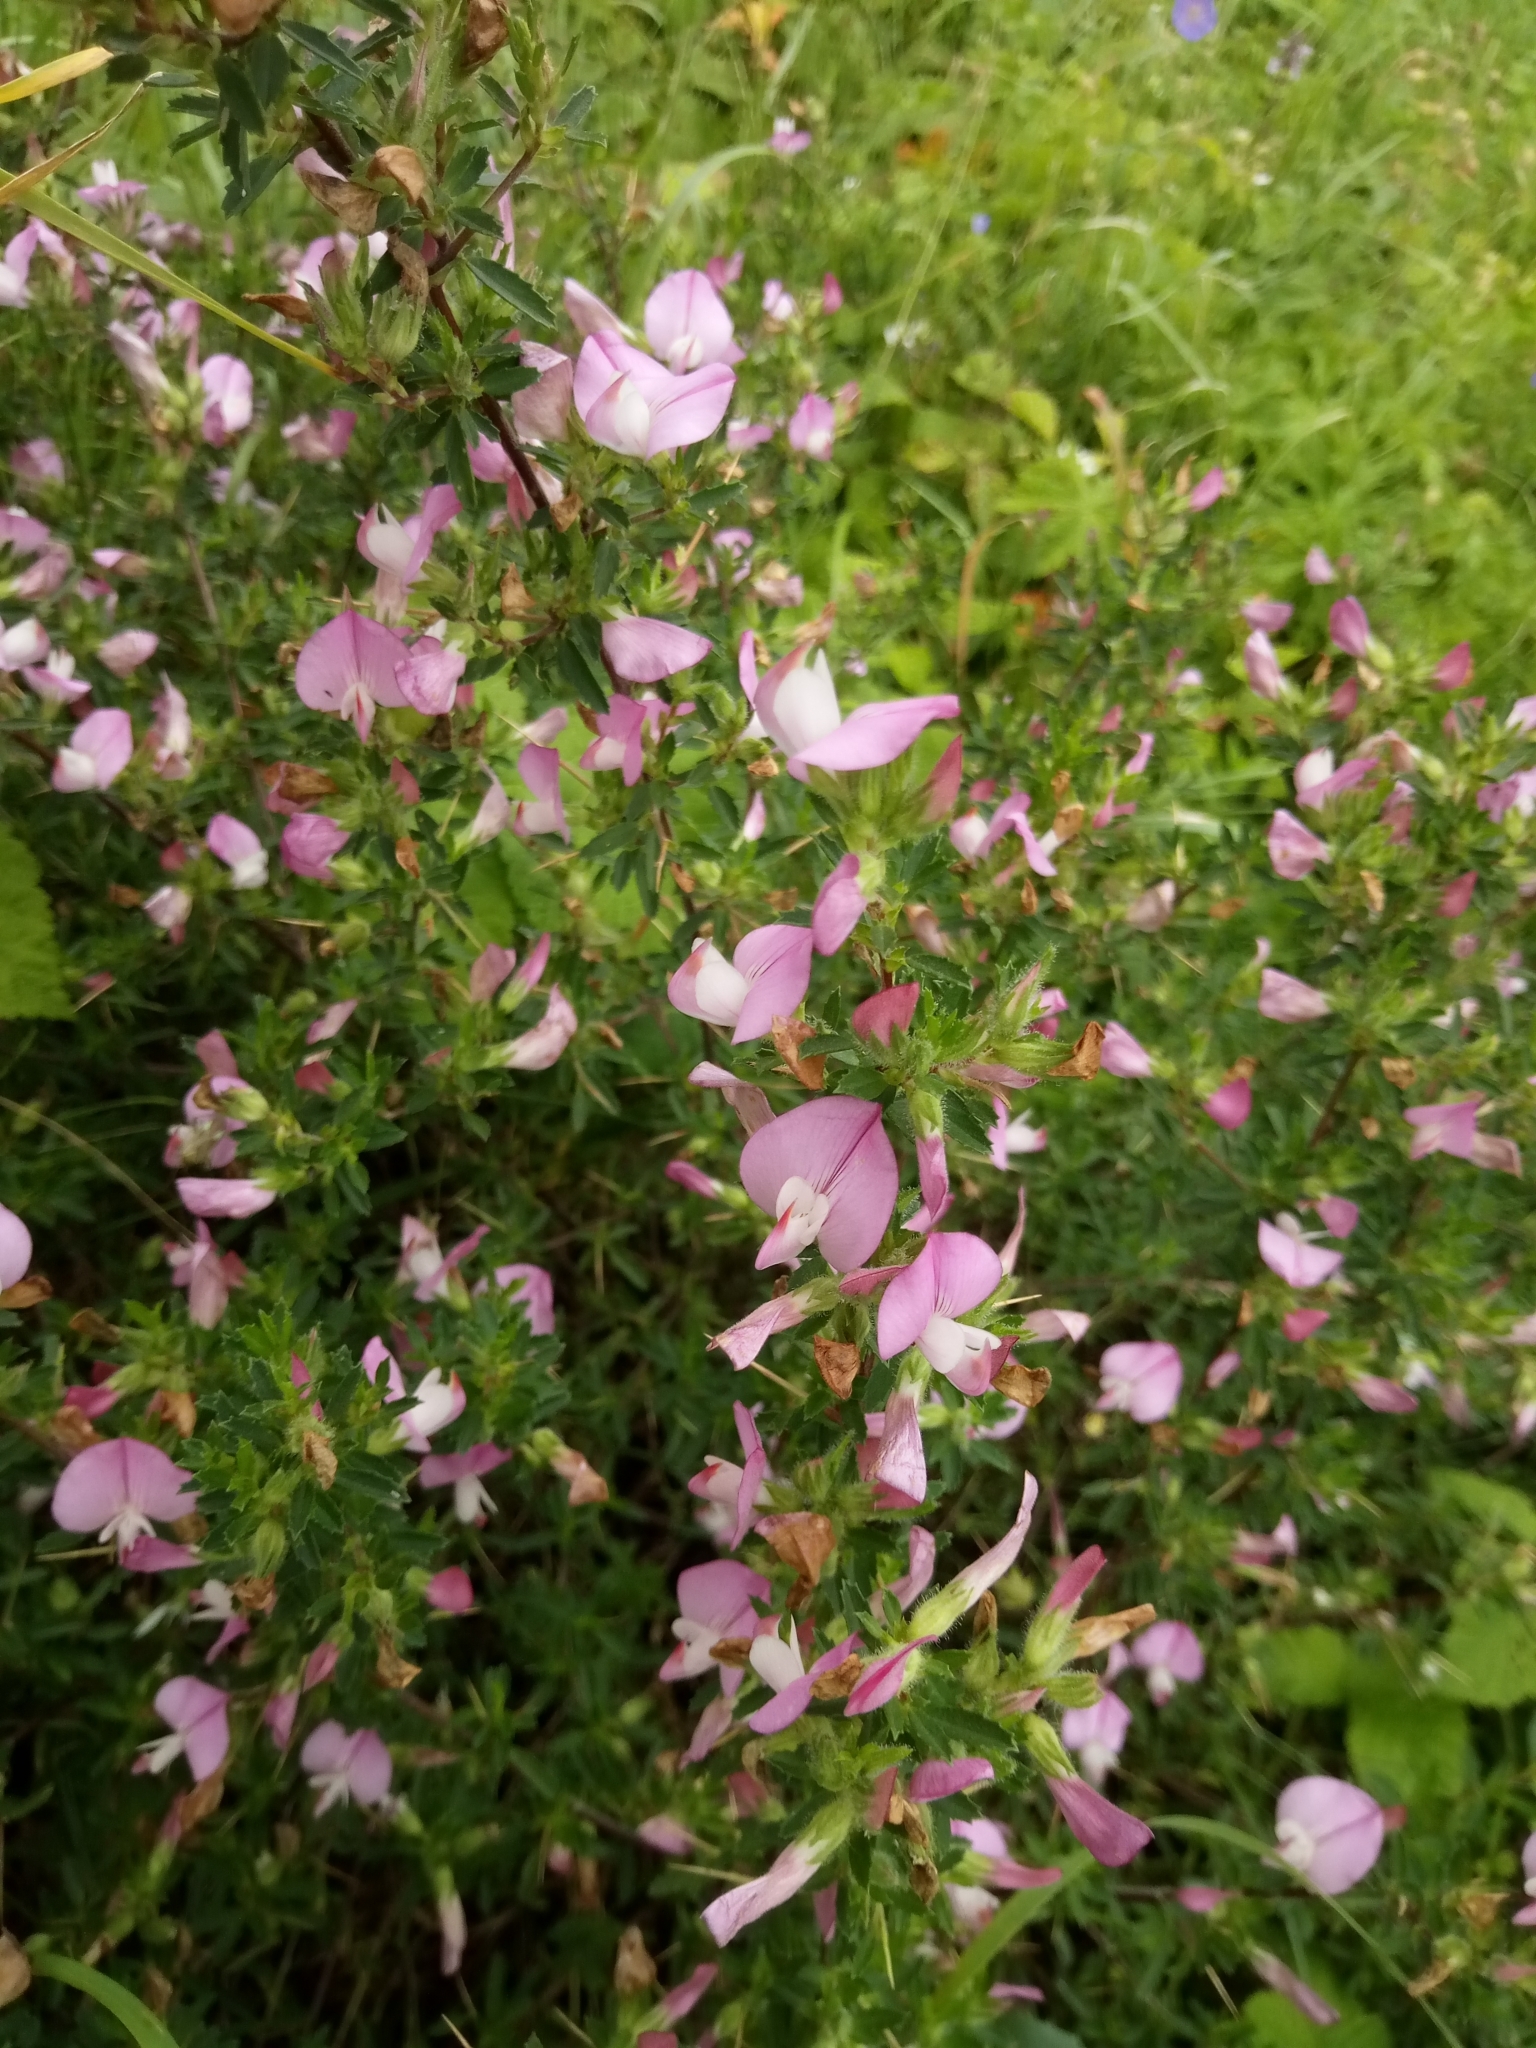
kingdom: Plantae
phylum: Tracheophyta
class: Magnoliopsida
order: Fabales
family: Fabaceae
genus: Ononis
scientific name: Ononis spinosa
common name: Spiny restharrow
